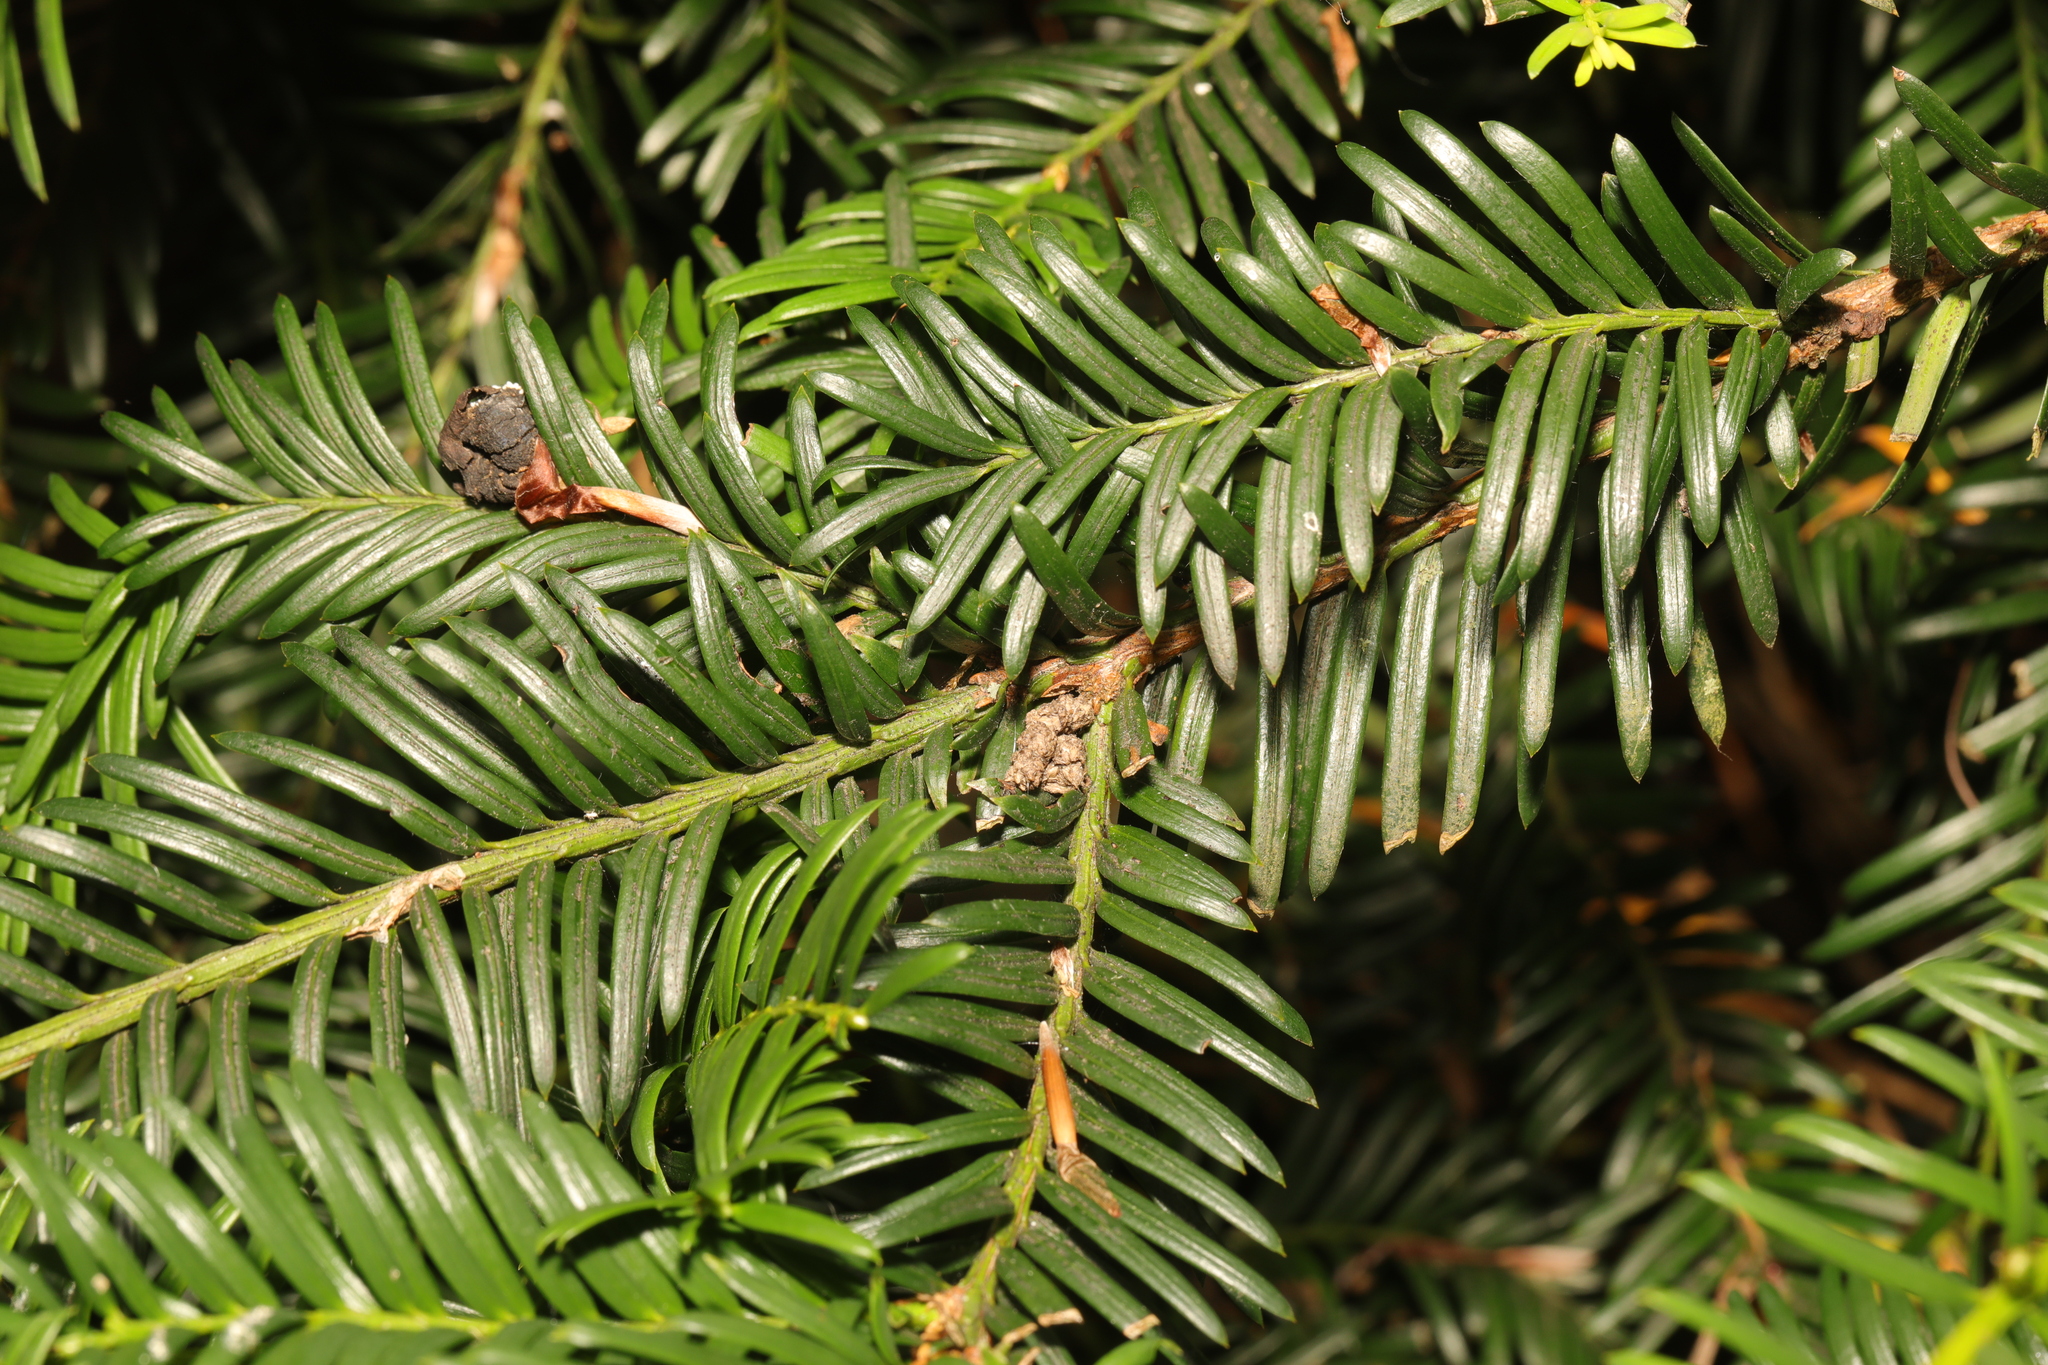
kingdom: Plantae
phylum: Tracheophyta
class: Pinopsida
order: Pinales
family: Taxaceae
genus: Taxus
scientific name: Taxus baccata
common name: Yew
